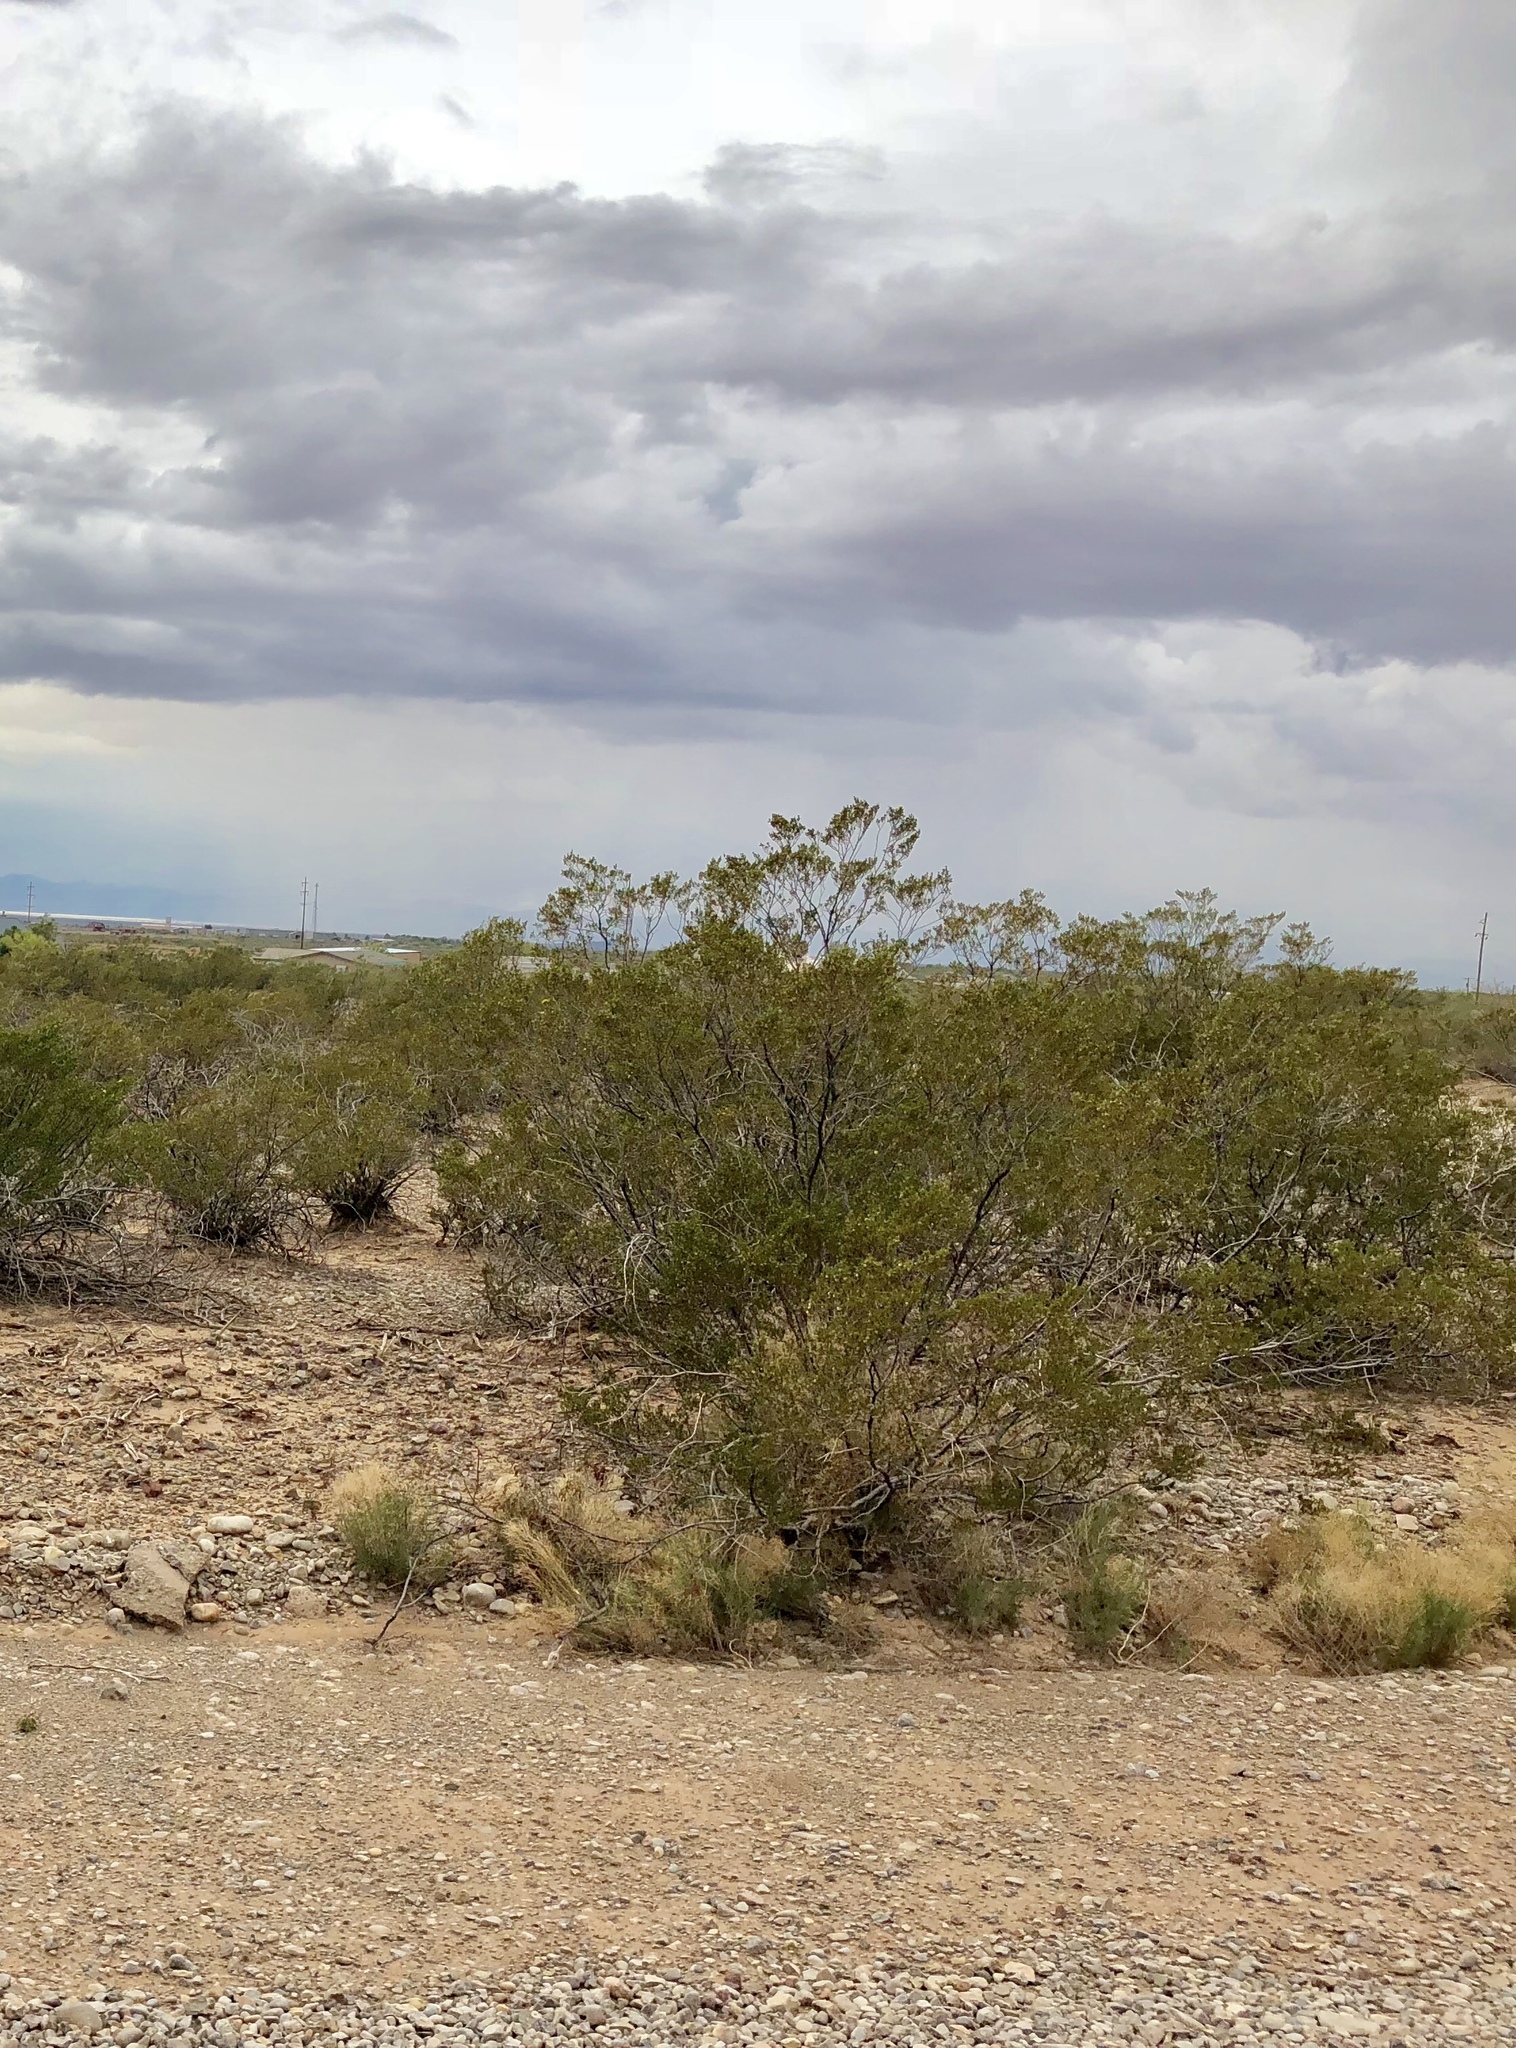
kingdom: Plantae
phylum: Tracheophyta
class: Magnoliopsida
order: Zygophyllales
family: Zygophyllaceae
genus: Larrea
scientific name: Larrea tridentata
